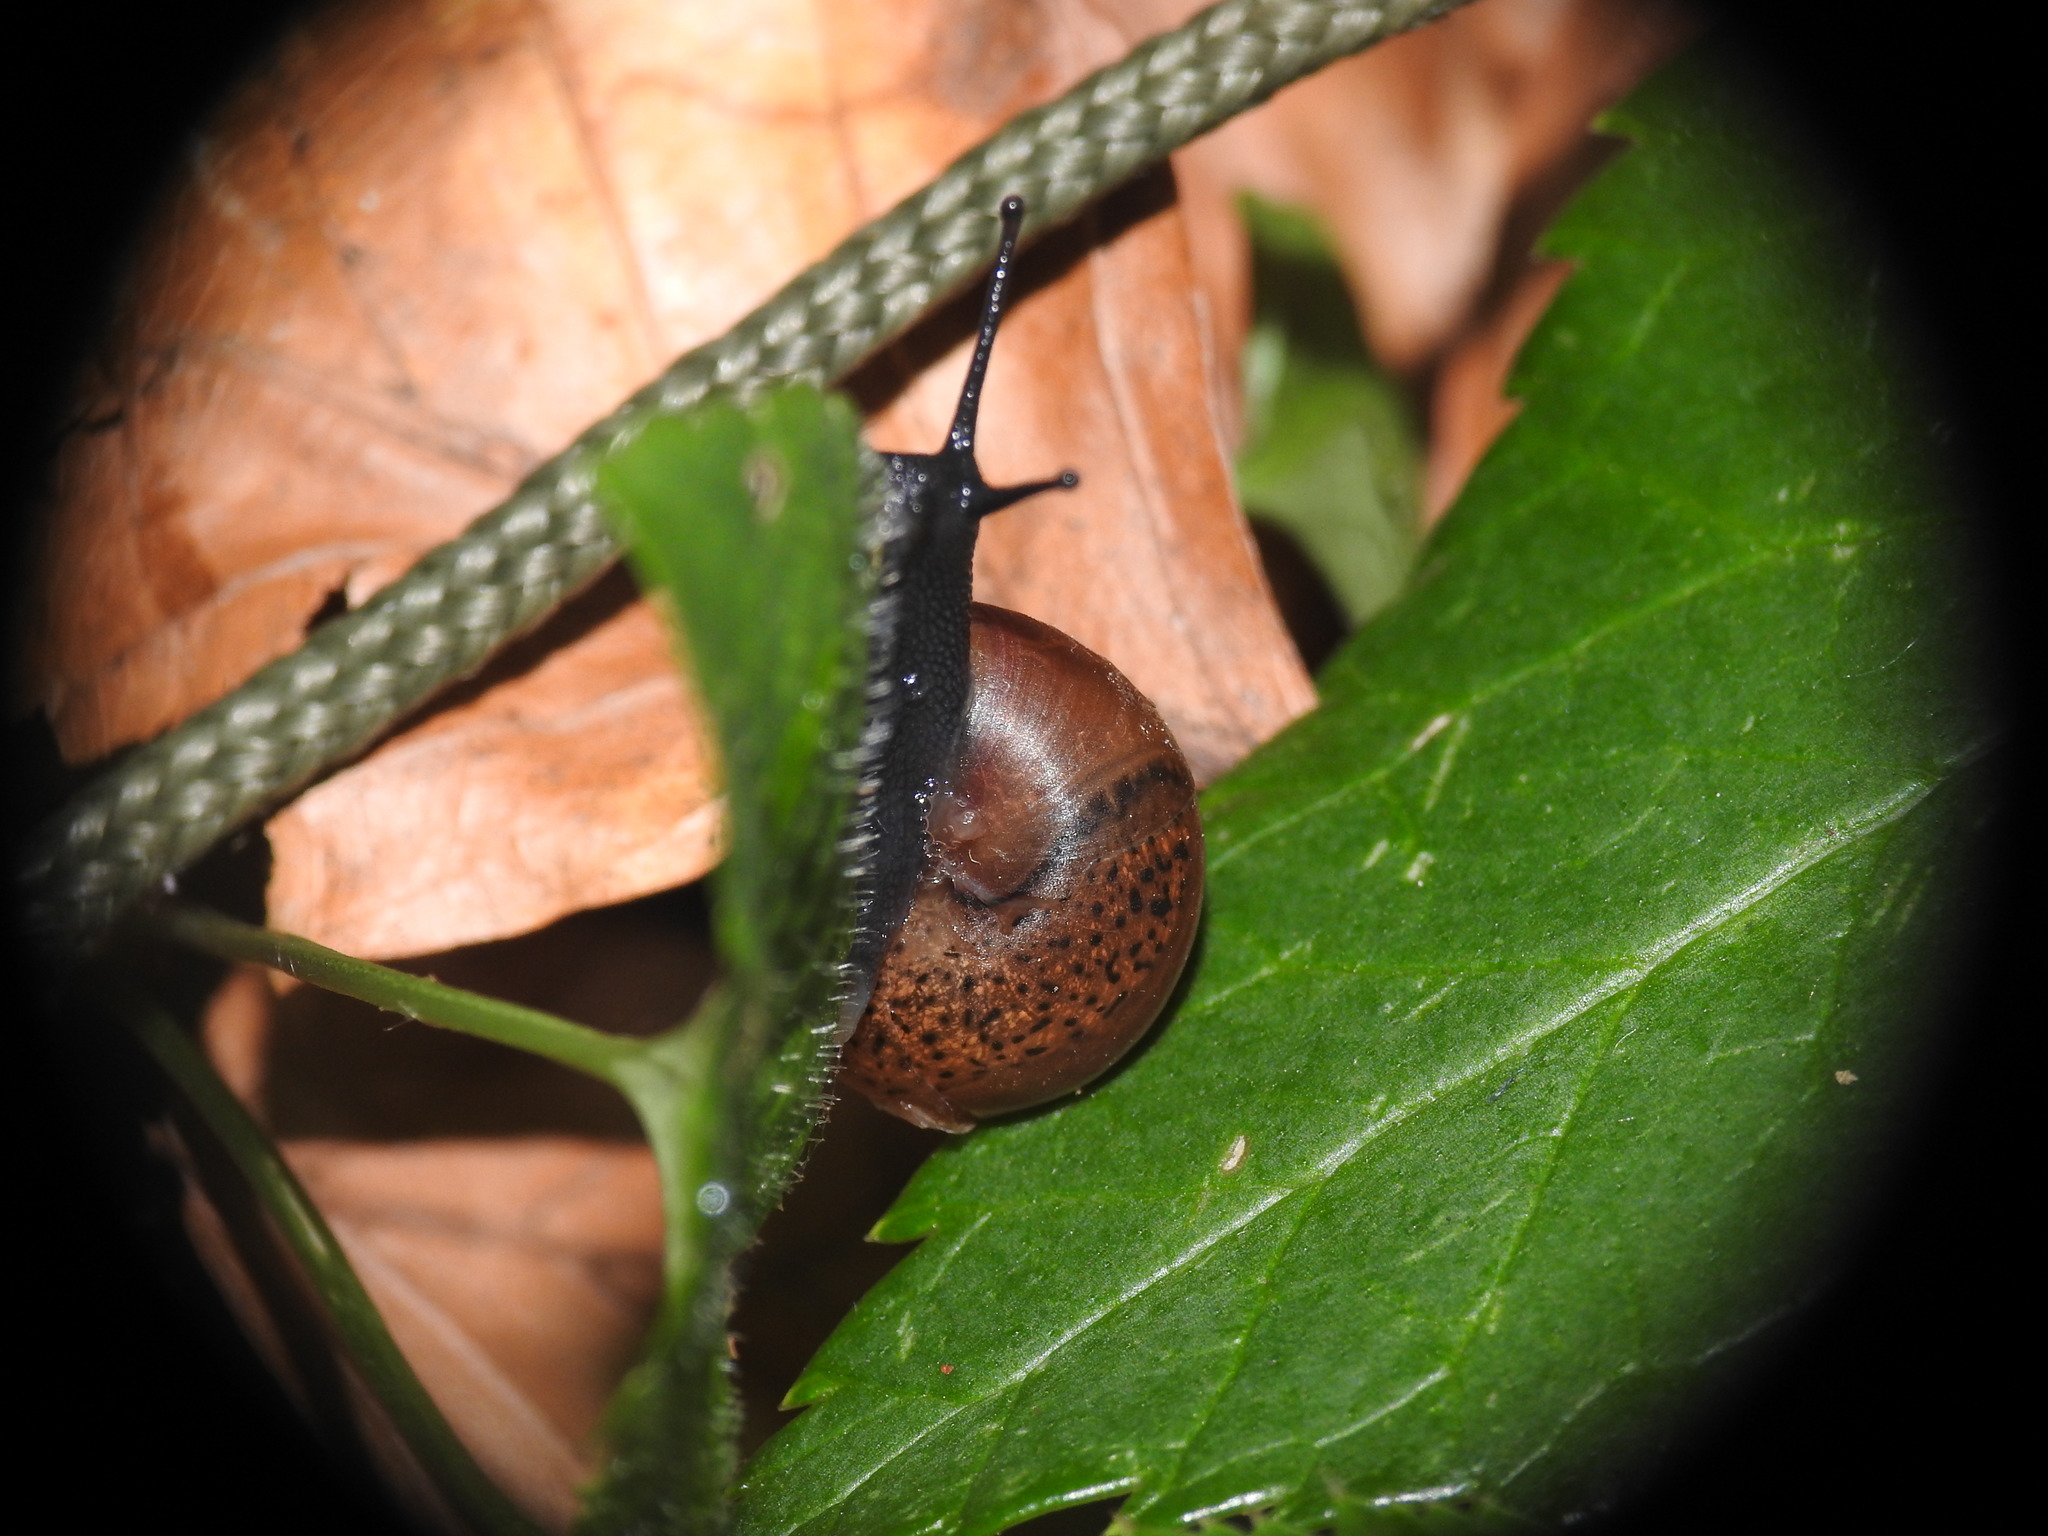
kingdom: Animalia
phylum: Mollusca
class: Gastropoda
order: Stylommatophora
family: Hygromiidae
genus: Monachoides
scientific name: Monachoides incarnatus
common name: Incarnate snail
